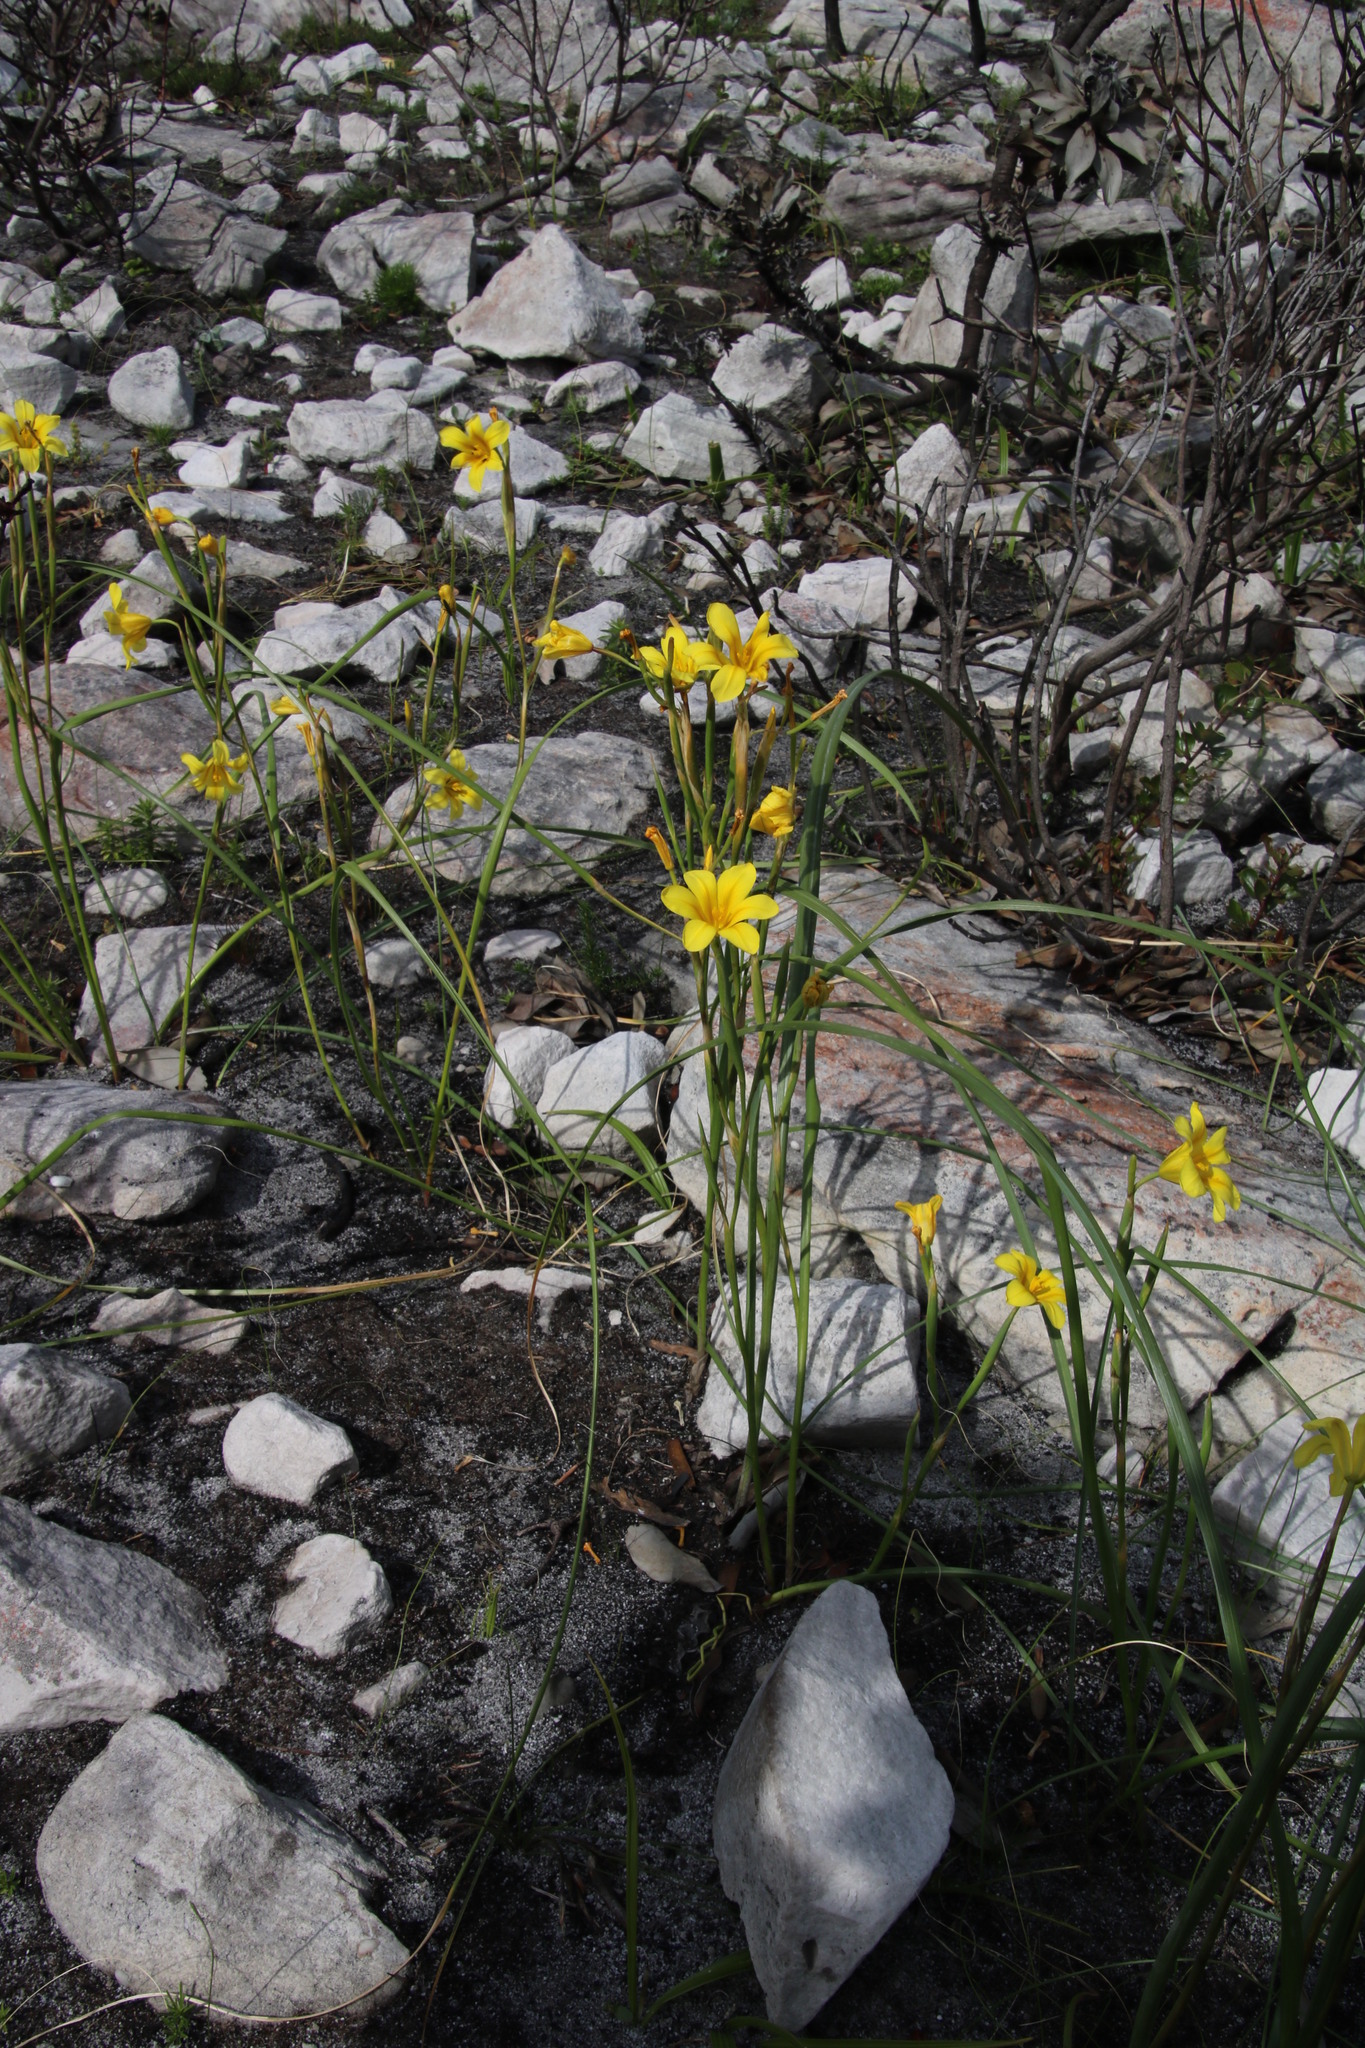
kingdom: Plantae
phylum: Tracheophyta
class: Liliopsida
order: Asparagales
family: Iridaceae
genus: Moraea
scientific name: Moraea ochroleuca
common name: Red tulp
